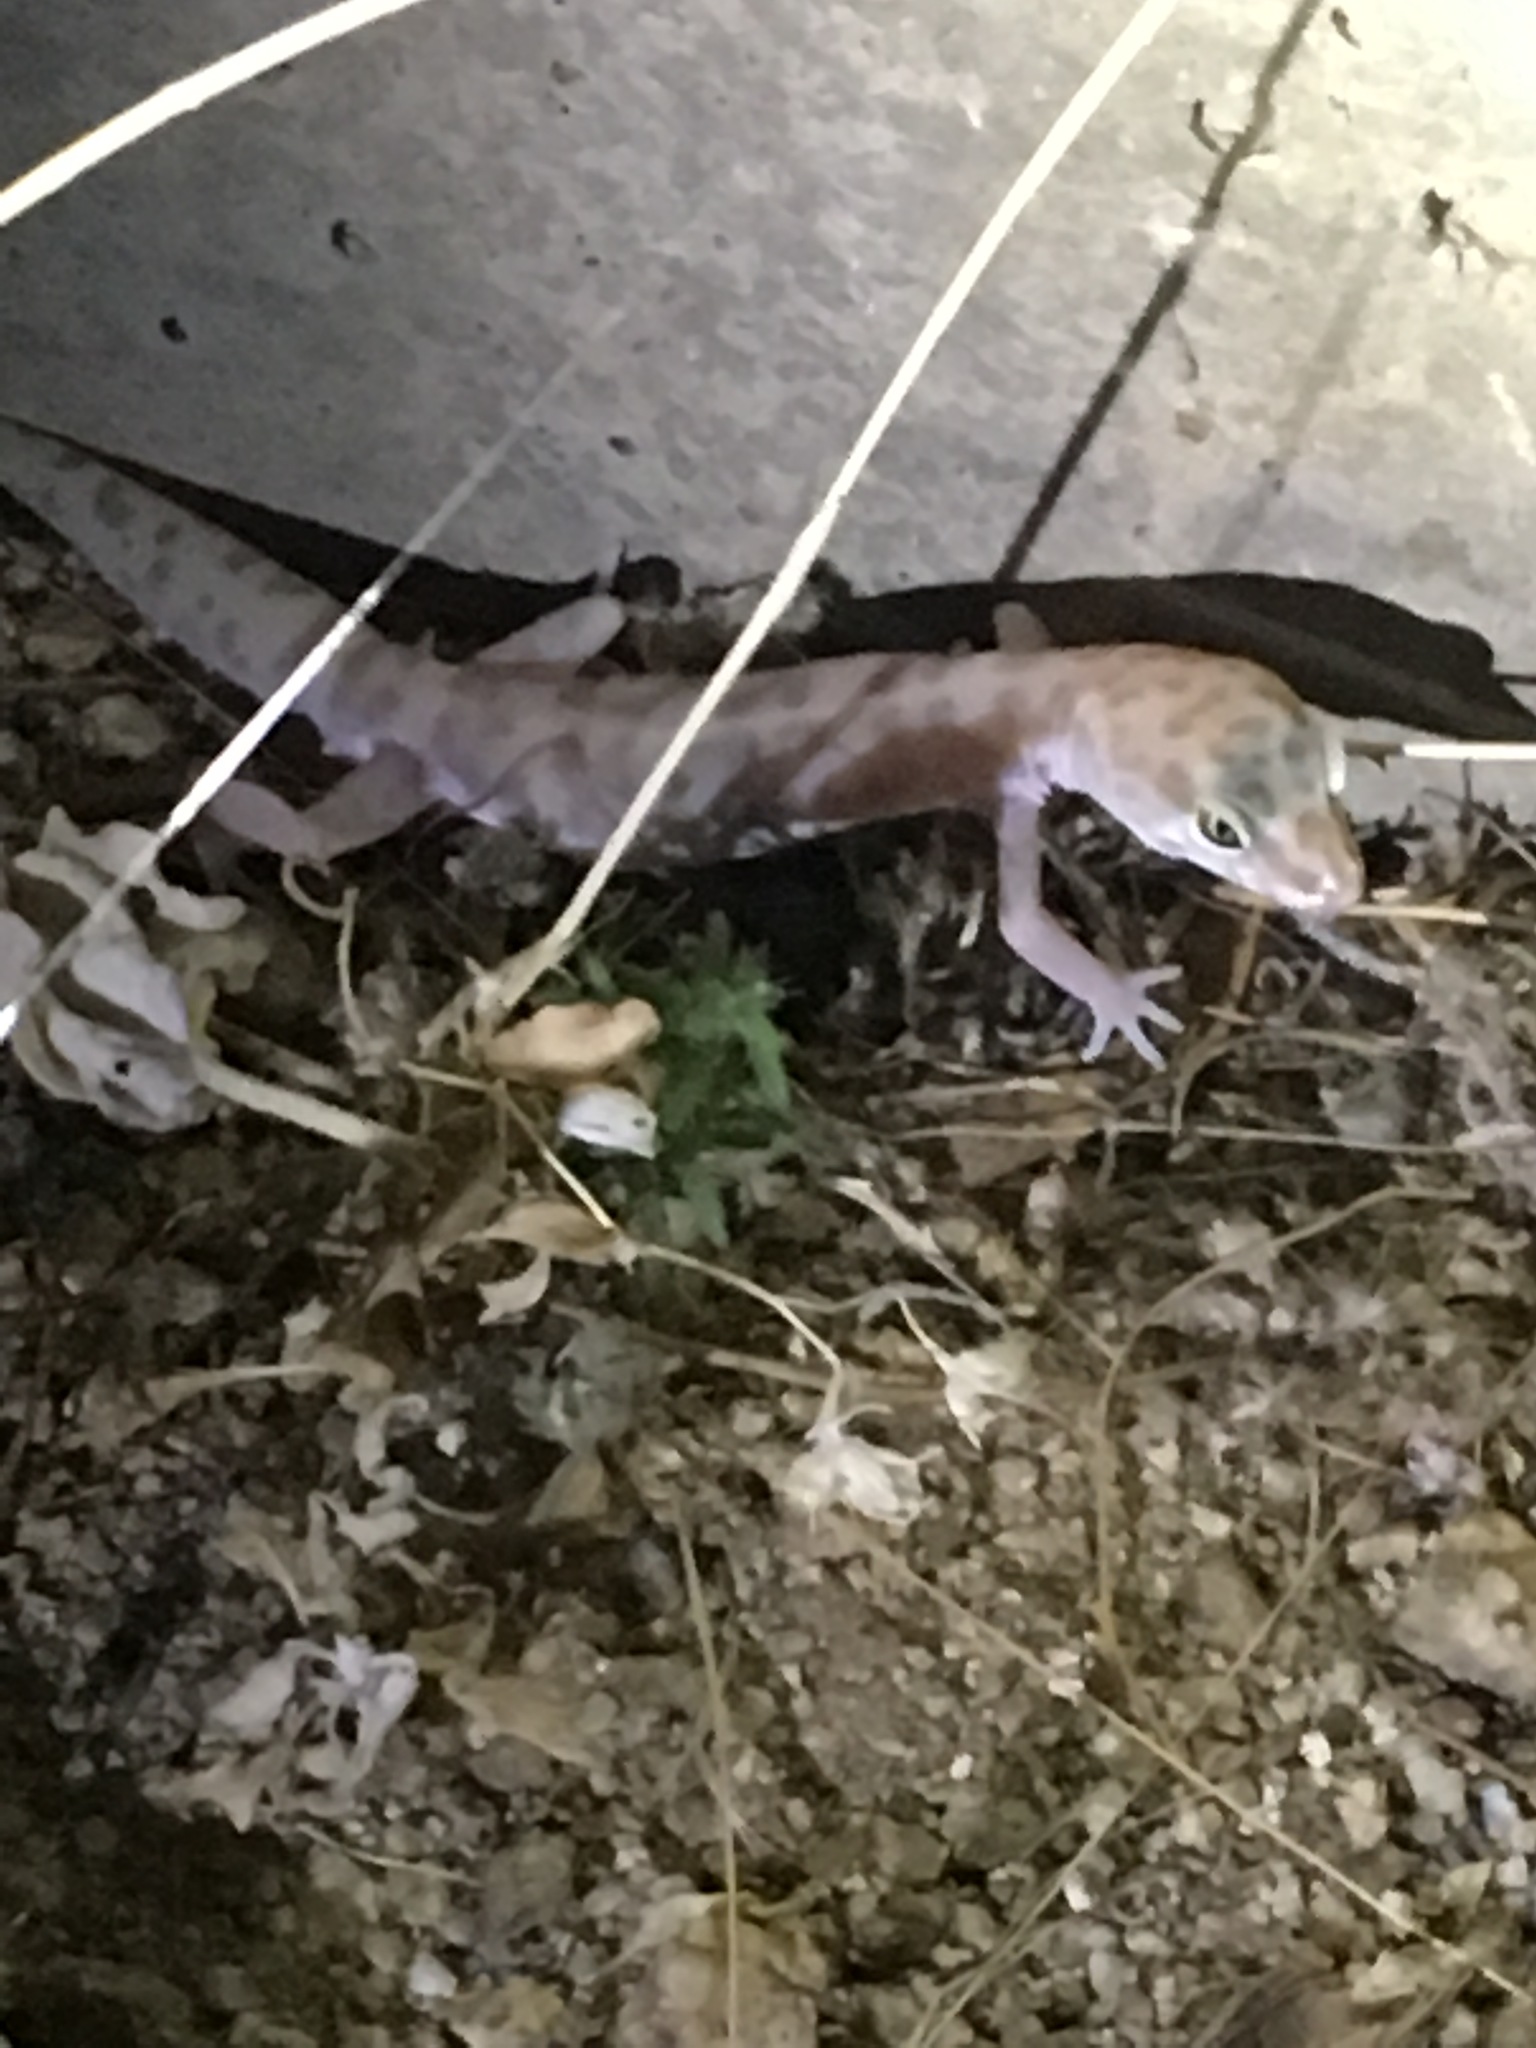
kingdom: Animalia
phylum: Chordata
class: Squamata
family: Eublepharidae
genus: Coleonyx
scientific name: Coleonyx variegatus
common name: Western banded gecko
